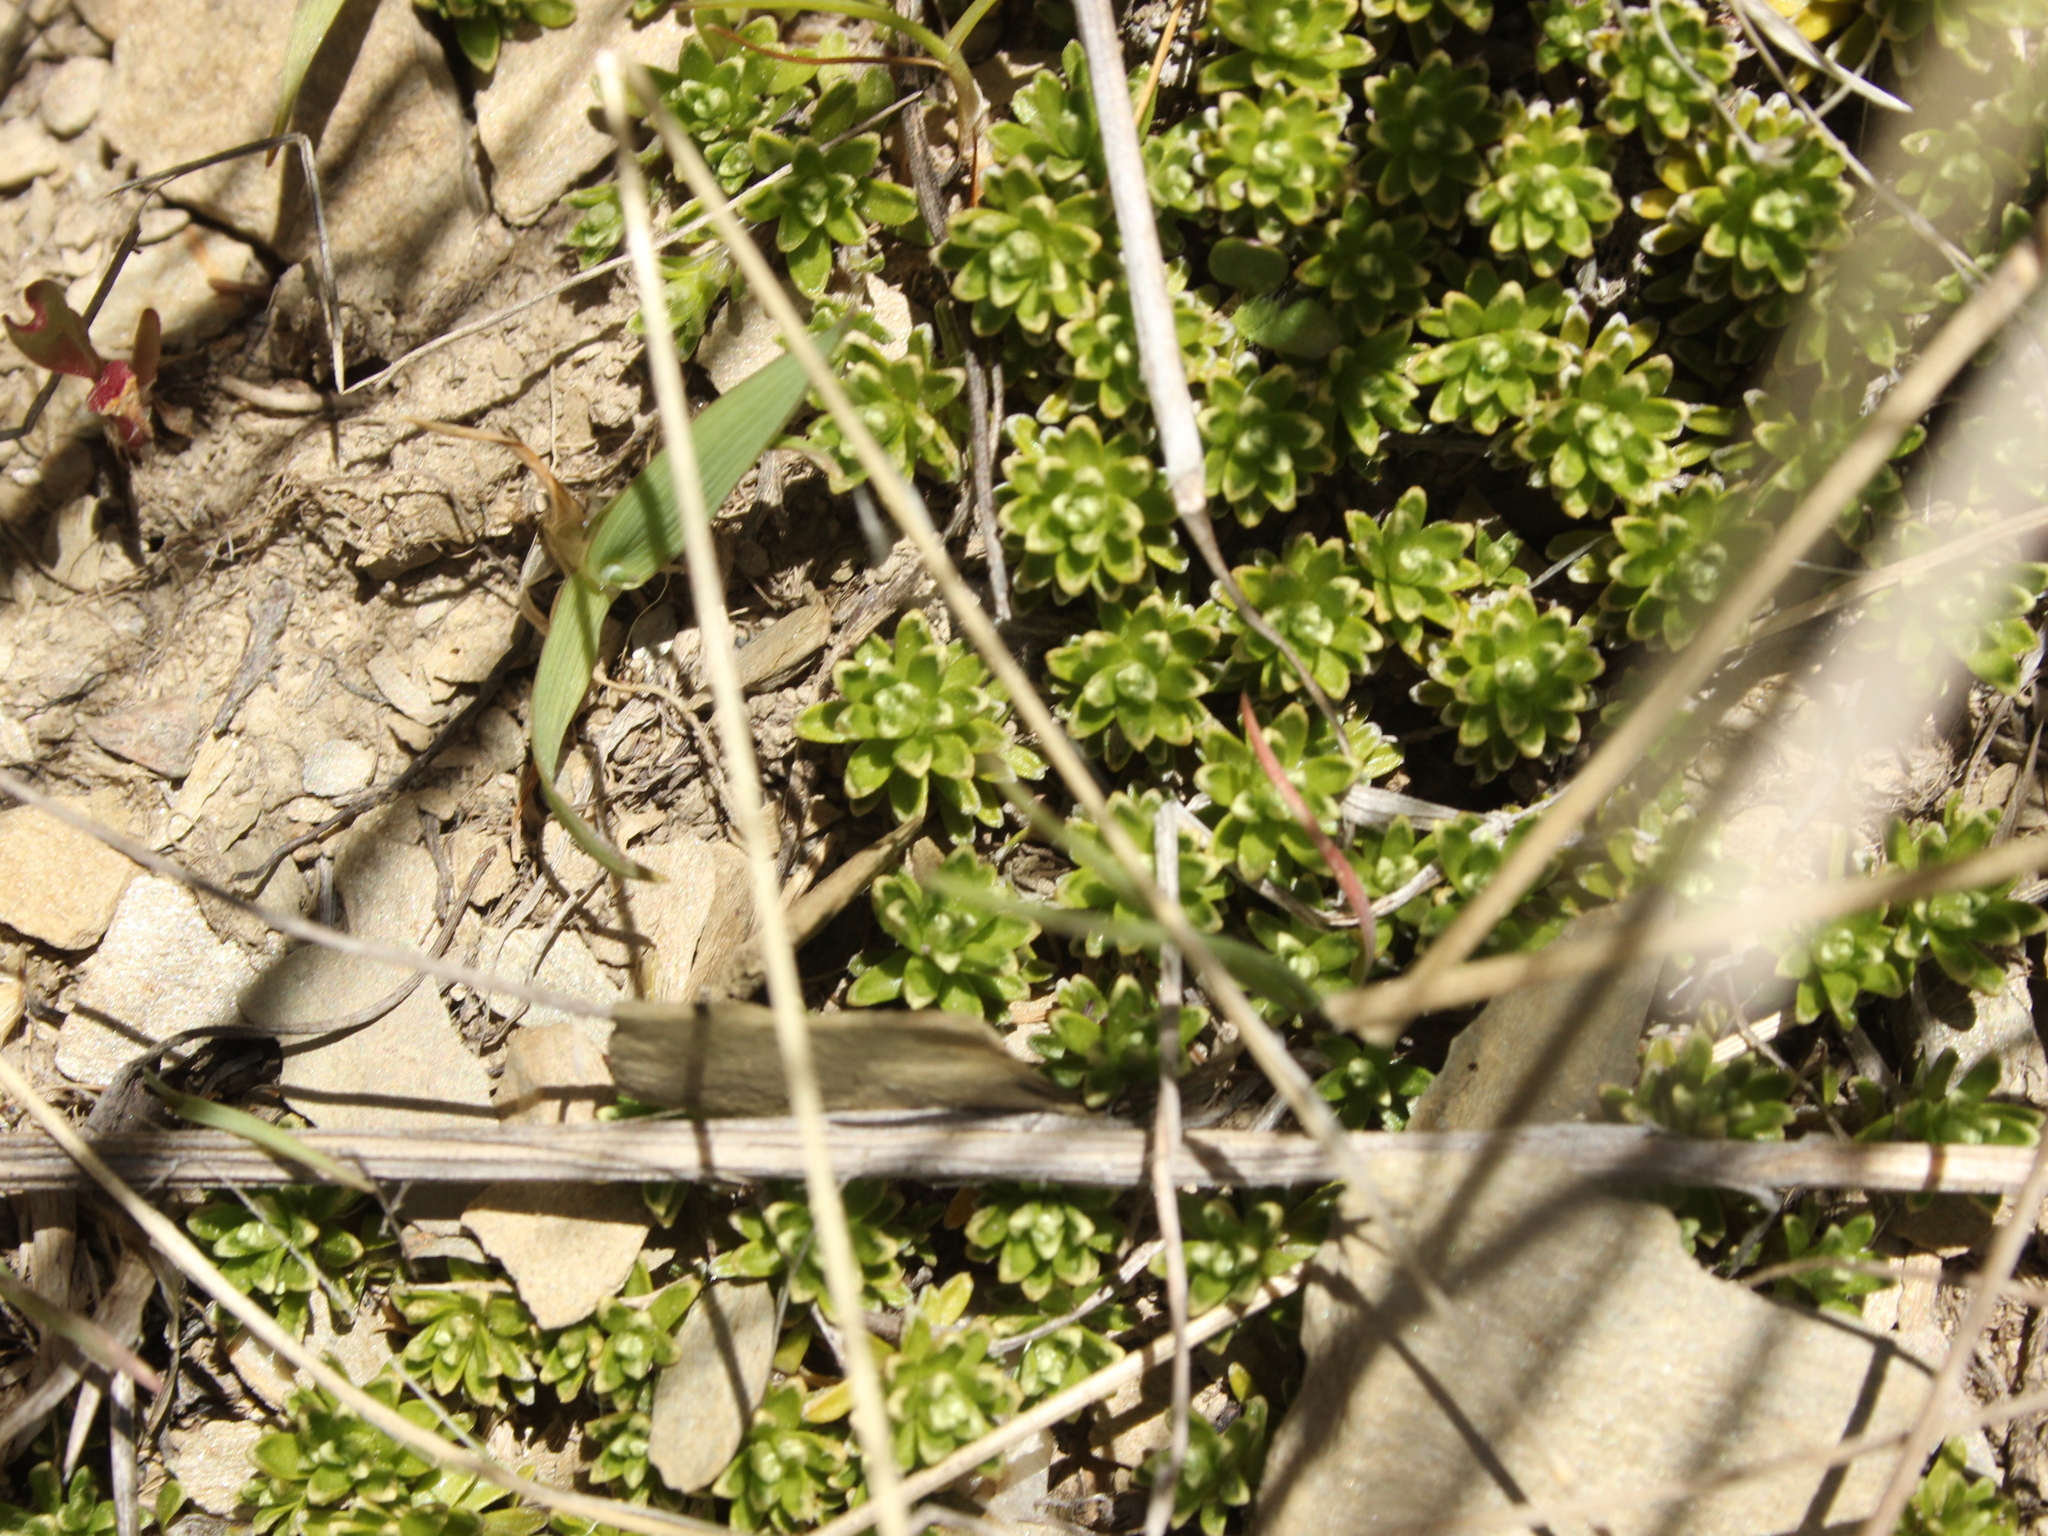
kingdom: Plantae
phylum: Tracheophyta
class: Magnoliopsida
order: Asterales
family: Asteraceae
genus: Raoulia
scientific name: Raoulia subsericea
